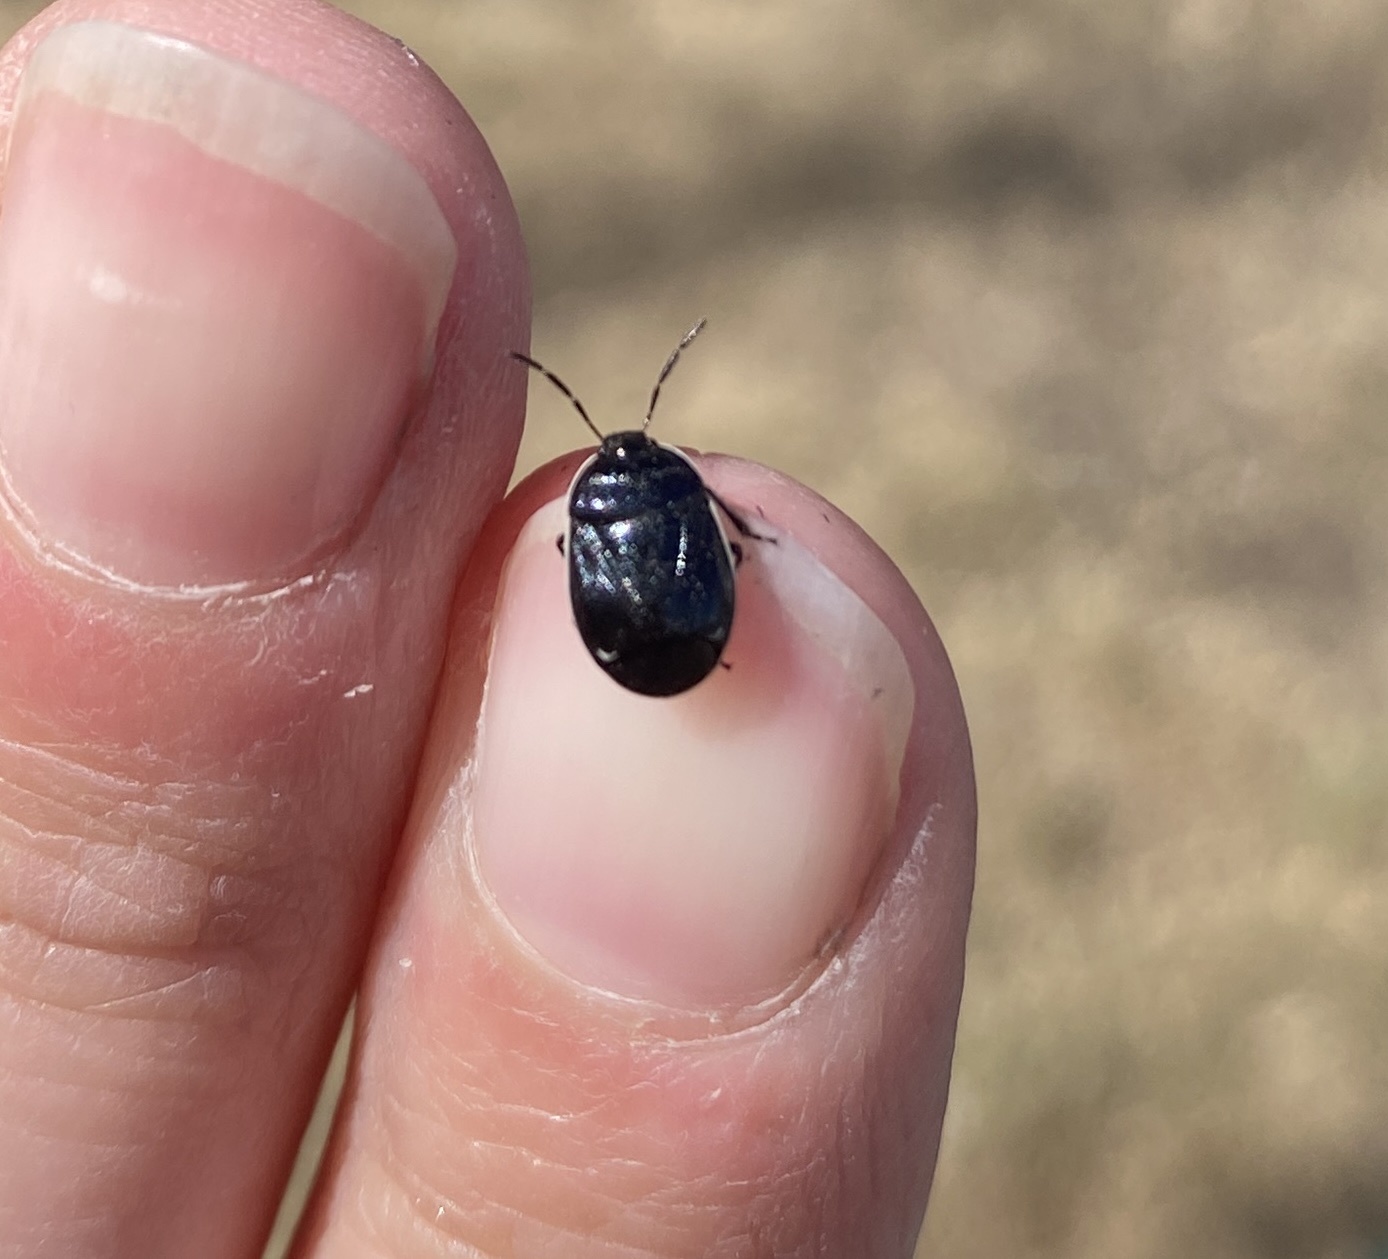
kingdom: Animalia
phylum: Arthropoda
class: Insecta
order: Hemiptera
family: Cydnidae
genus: Sehirus
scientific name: Sehirus cinctus
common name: White-margined burrower bug
